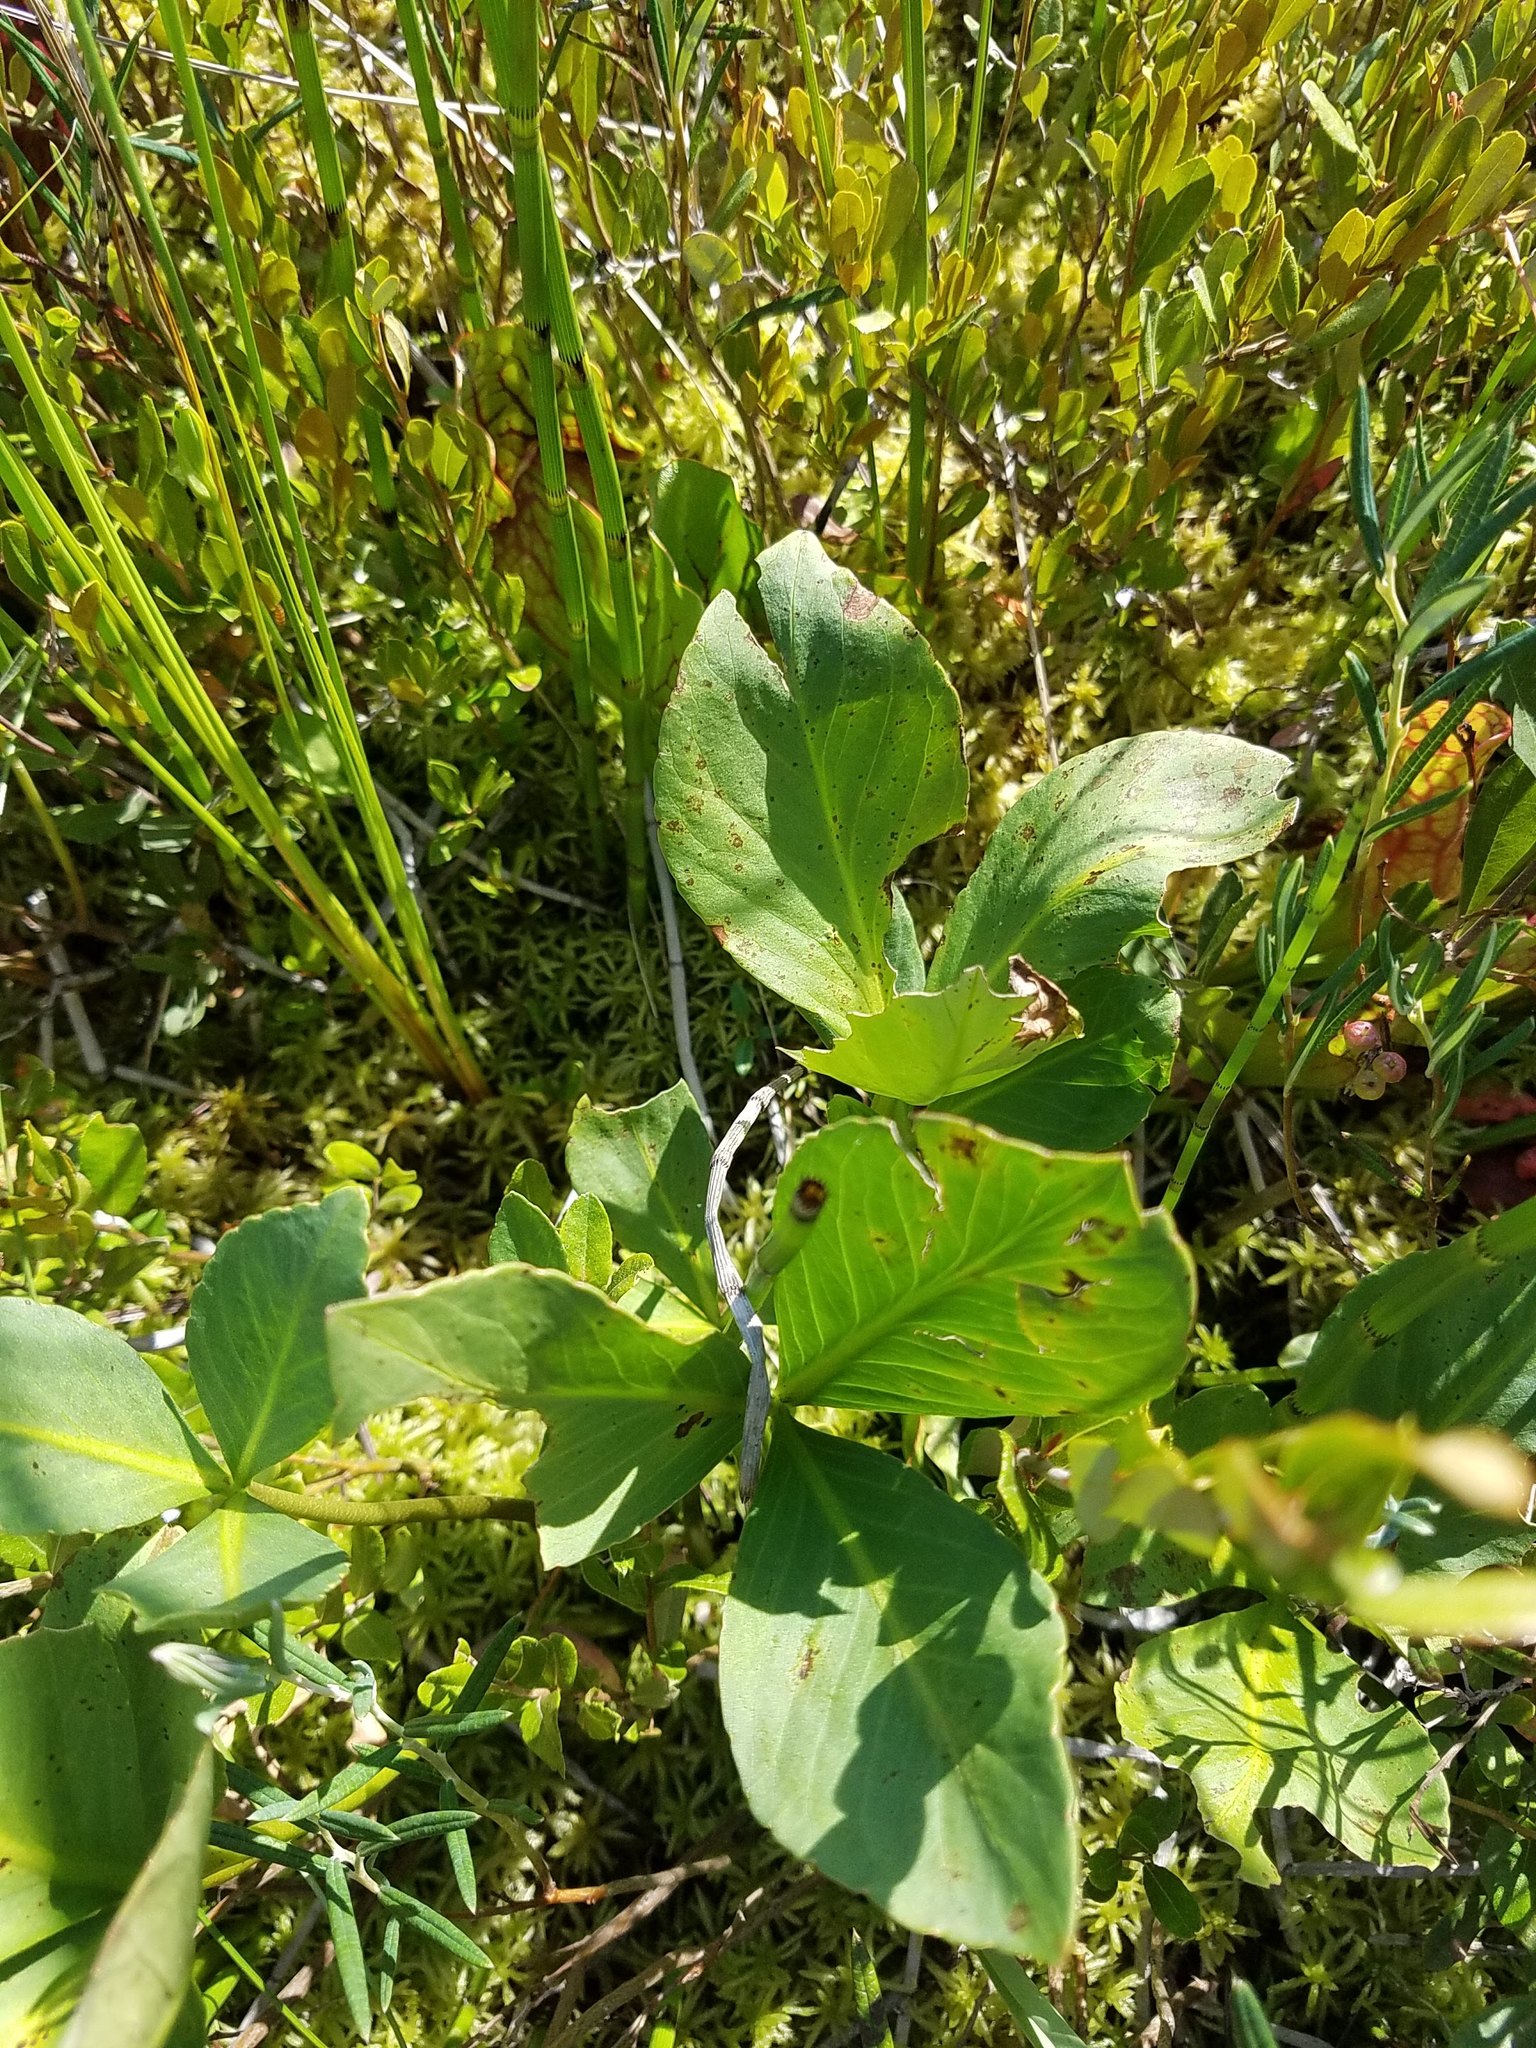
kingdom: Plantae
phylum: Tracheophyta
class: Magnoliopsida
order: Asterales
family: Menyanthaceae
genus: Menyanthes
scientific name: Menyanthes trifoliata
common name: Bogbean
